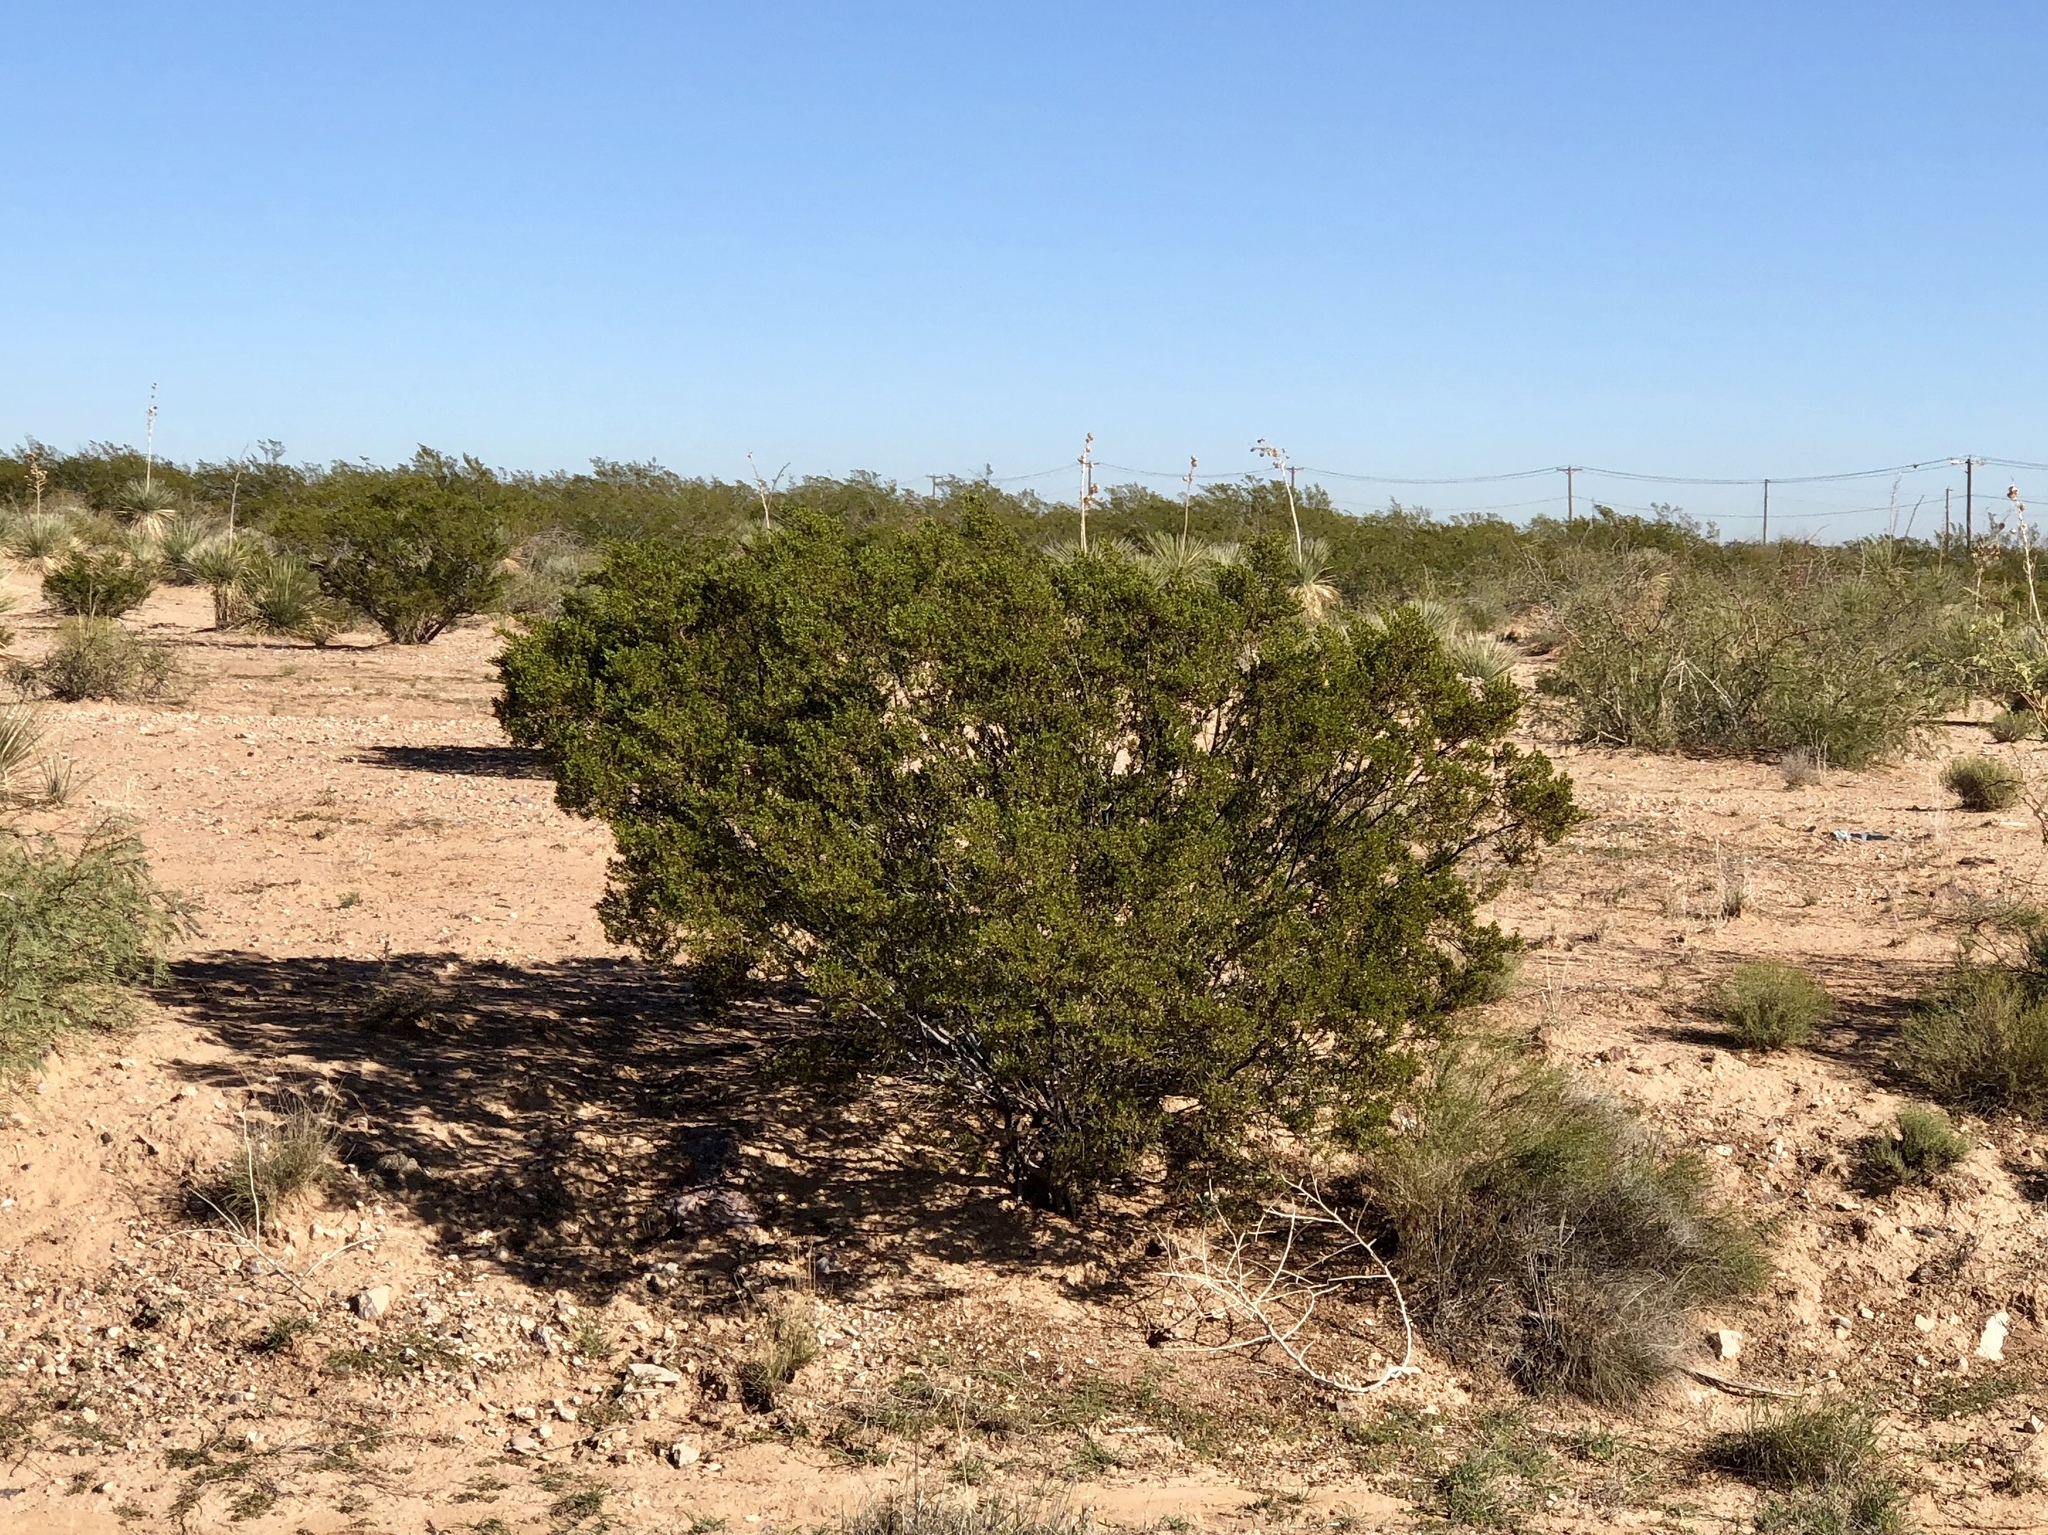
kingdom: Plantae
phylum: Tracheophyta
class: Magnoliopsida
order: Zygophyllales
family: Zygophyllaceae
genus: Larrea
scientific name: Larrea tridentata
